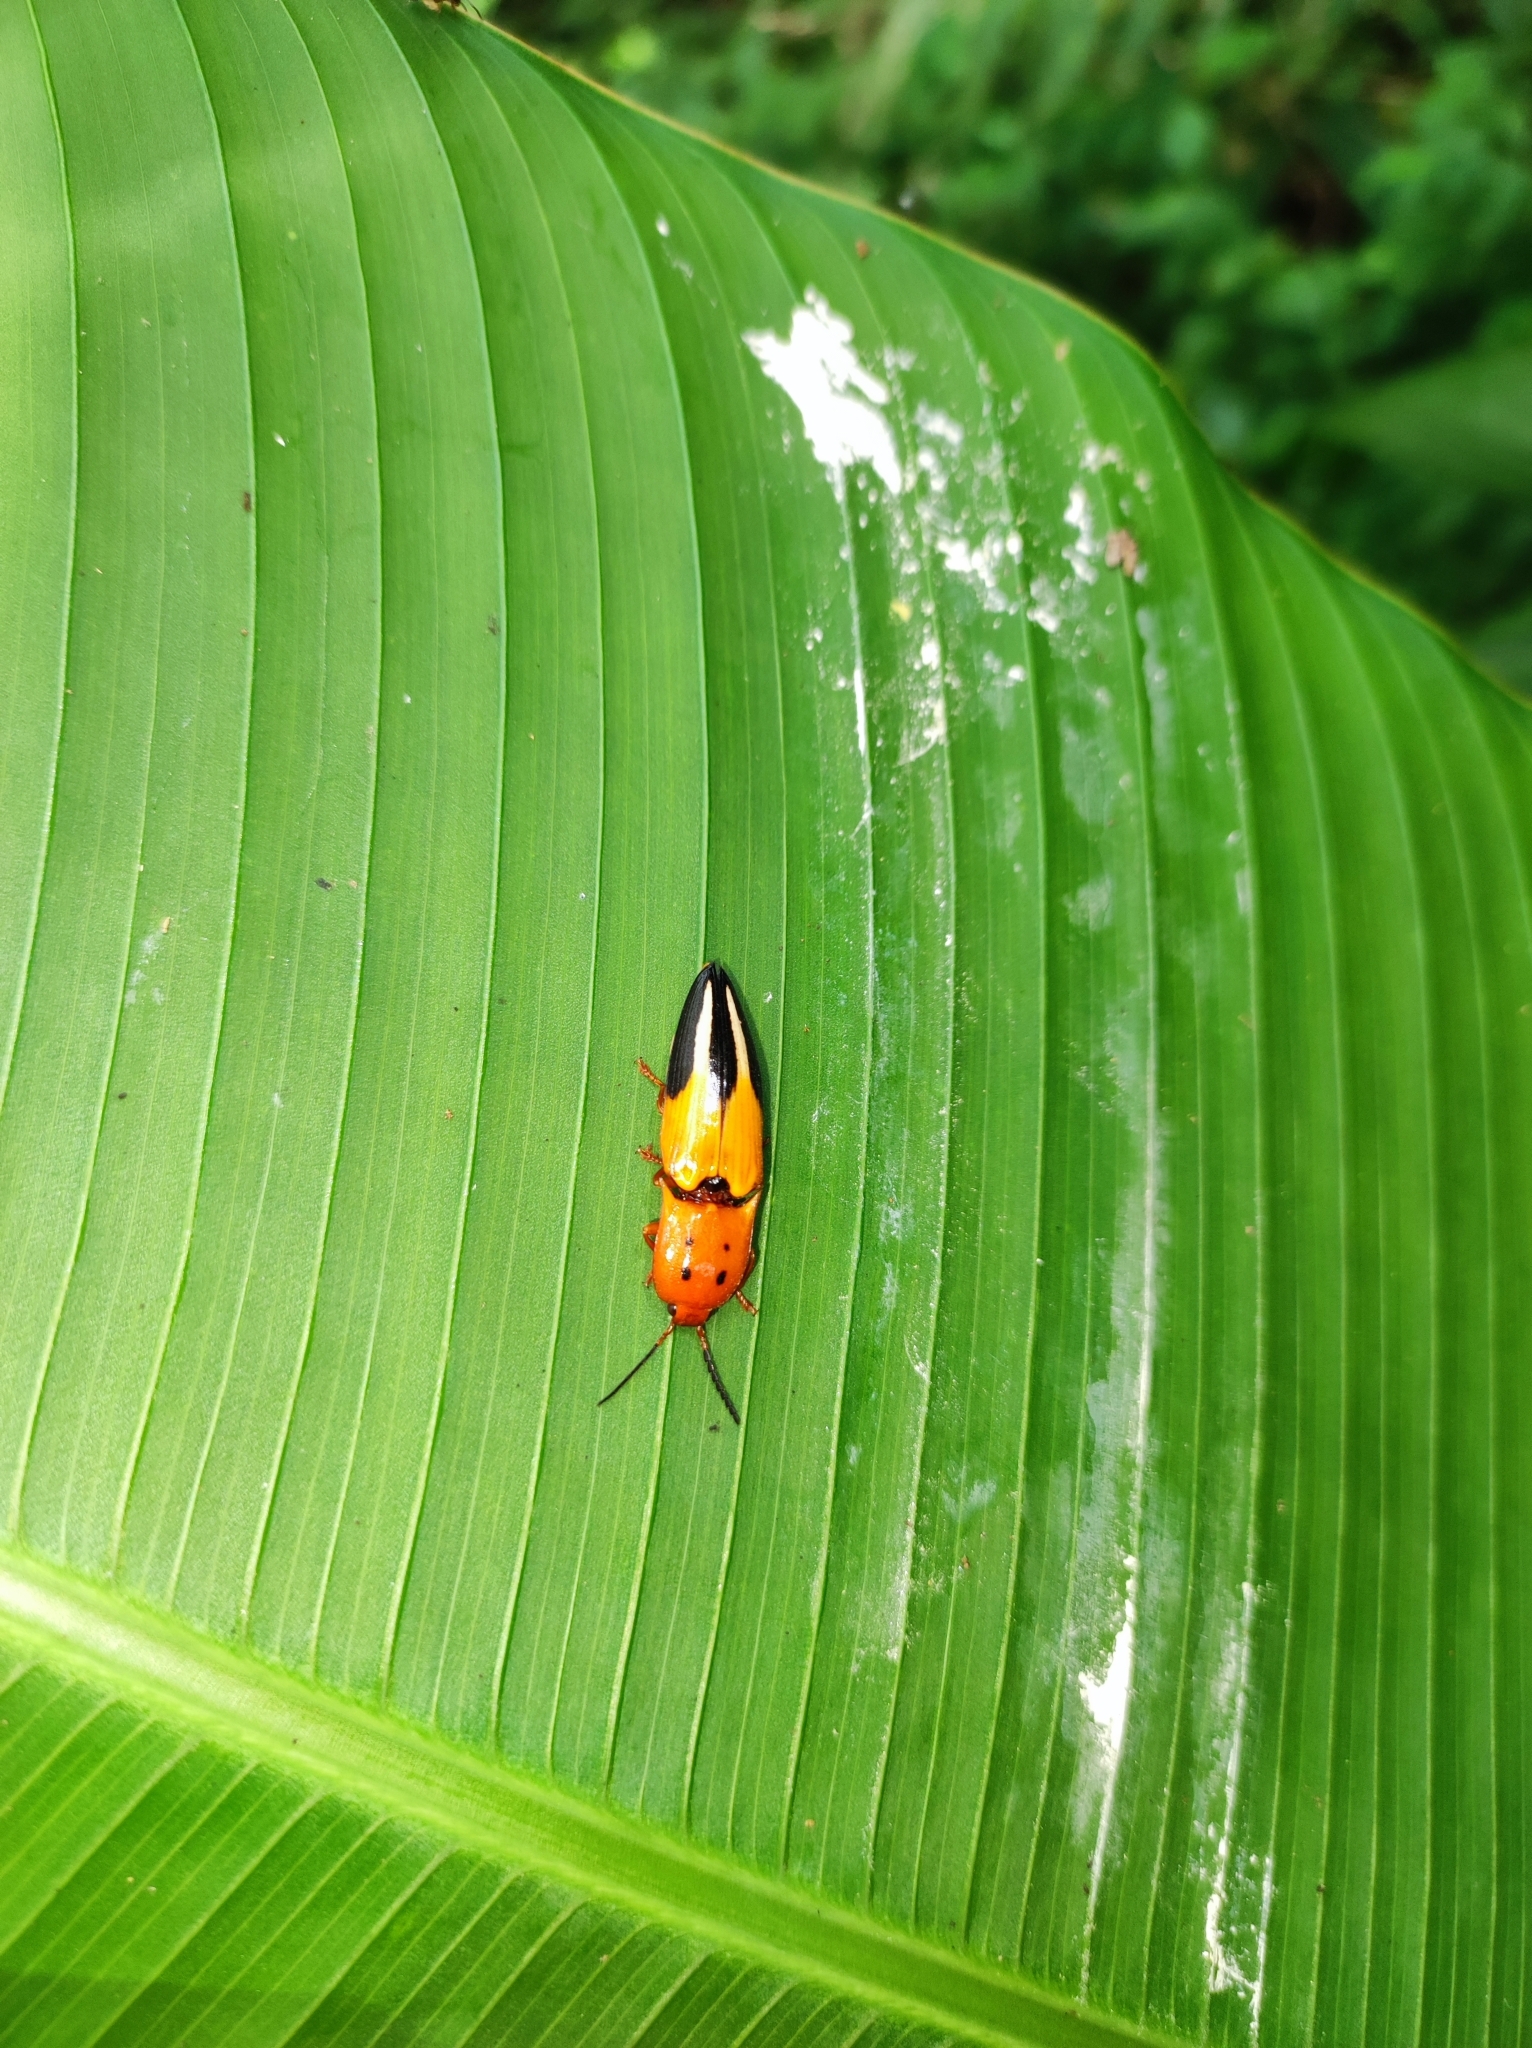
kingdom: Animalia
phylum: Arthropoda
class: Insecta
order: Coleoptera
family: Elateridae
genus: Platycrepidius
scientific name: Platycrepidius
